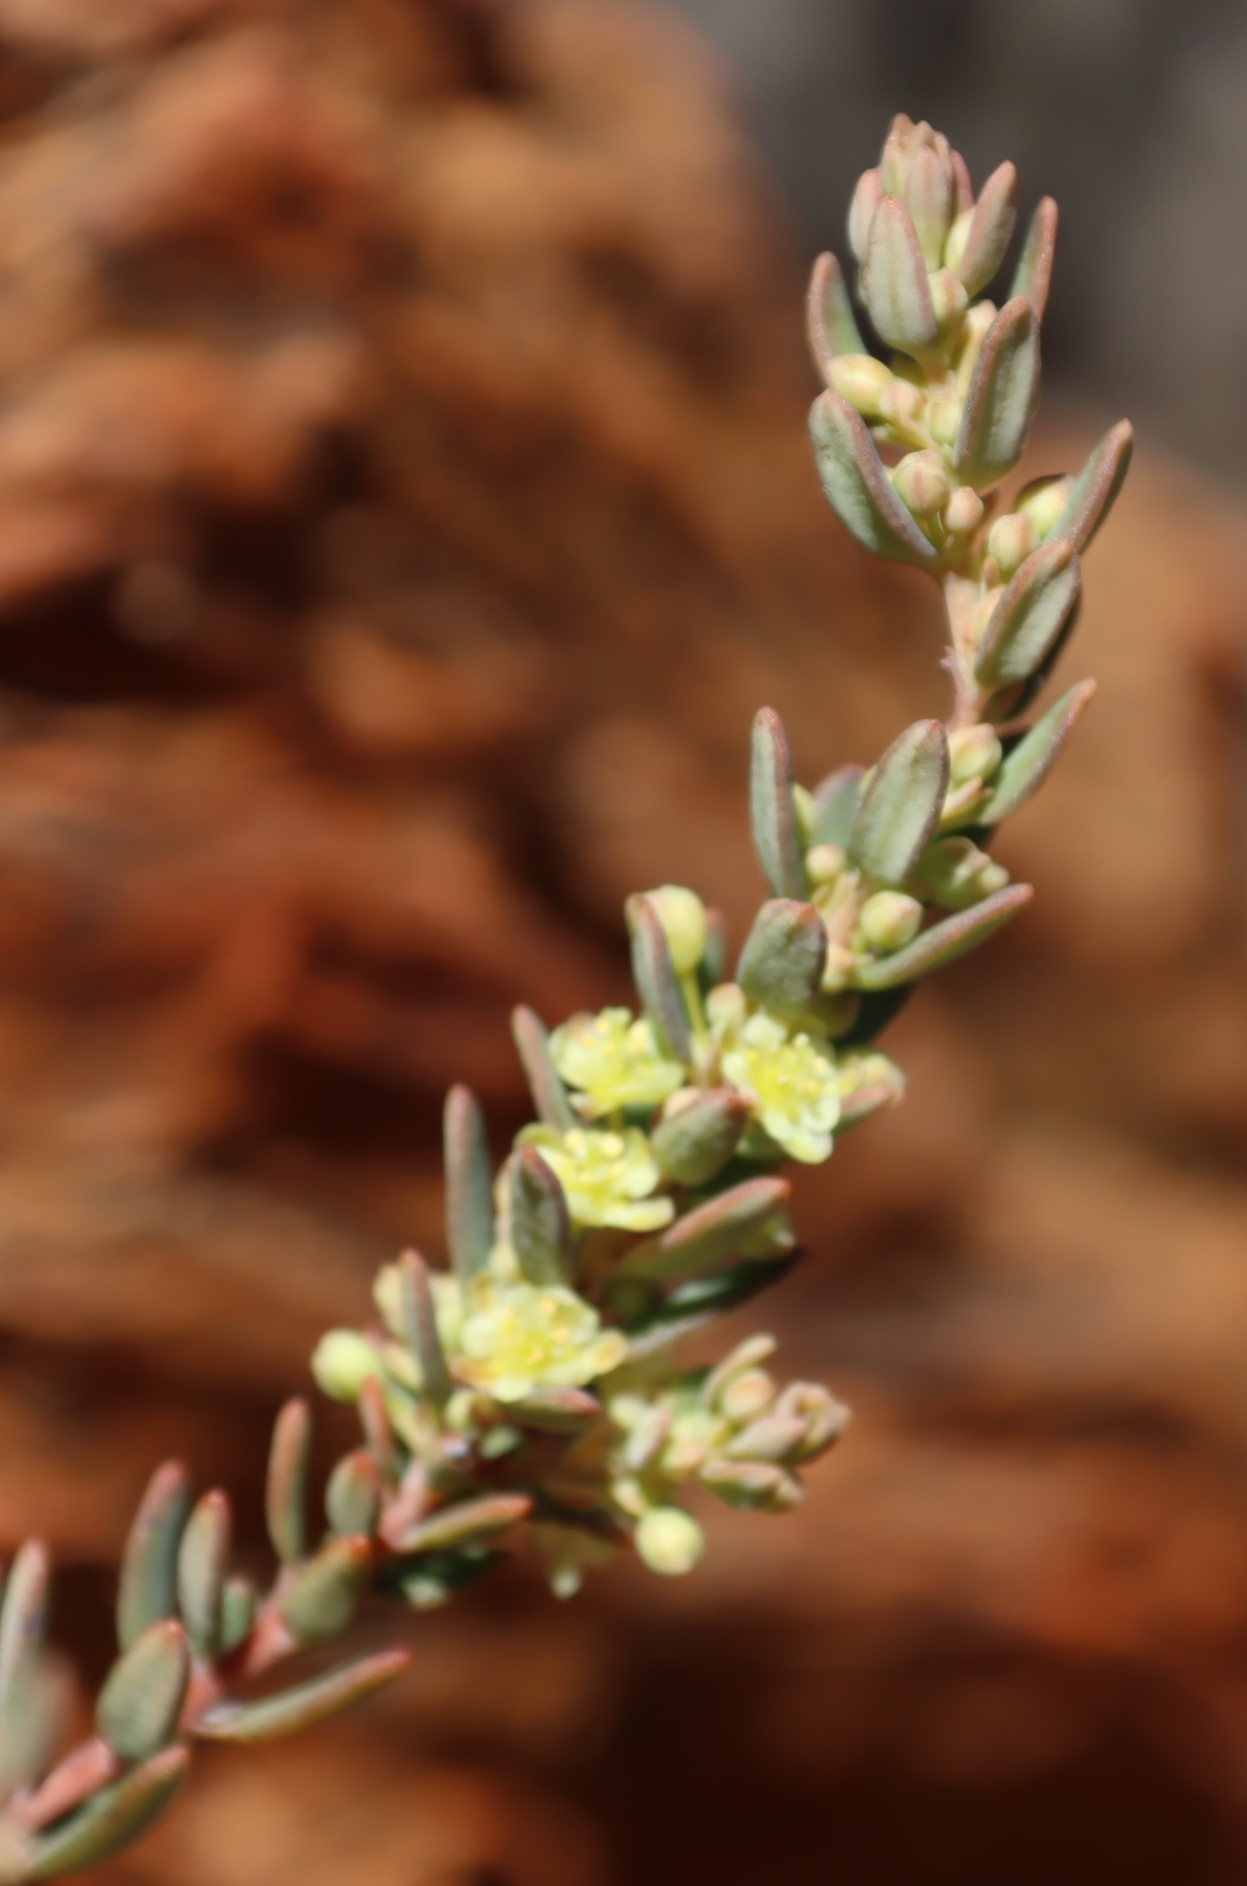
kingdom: Plantae
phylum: Tracheophyta
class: Magnoliopsida
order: Malpighiales
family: Peraceae
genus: Clutia
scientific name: Clutia alaternoides
